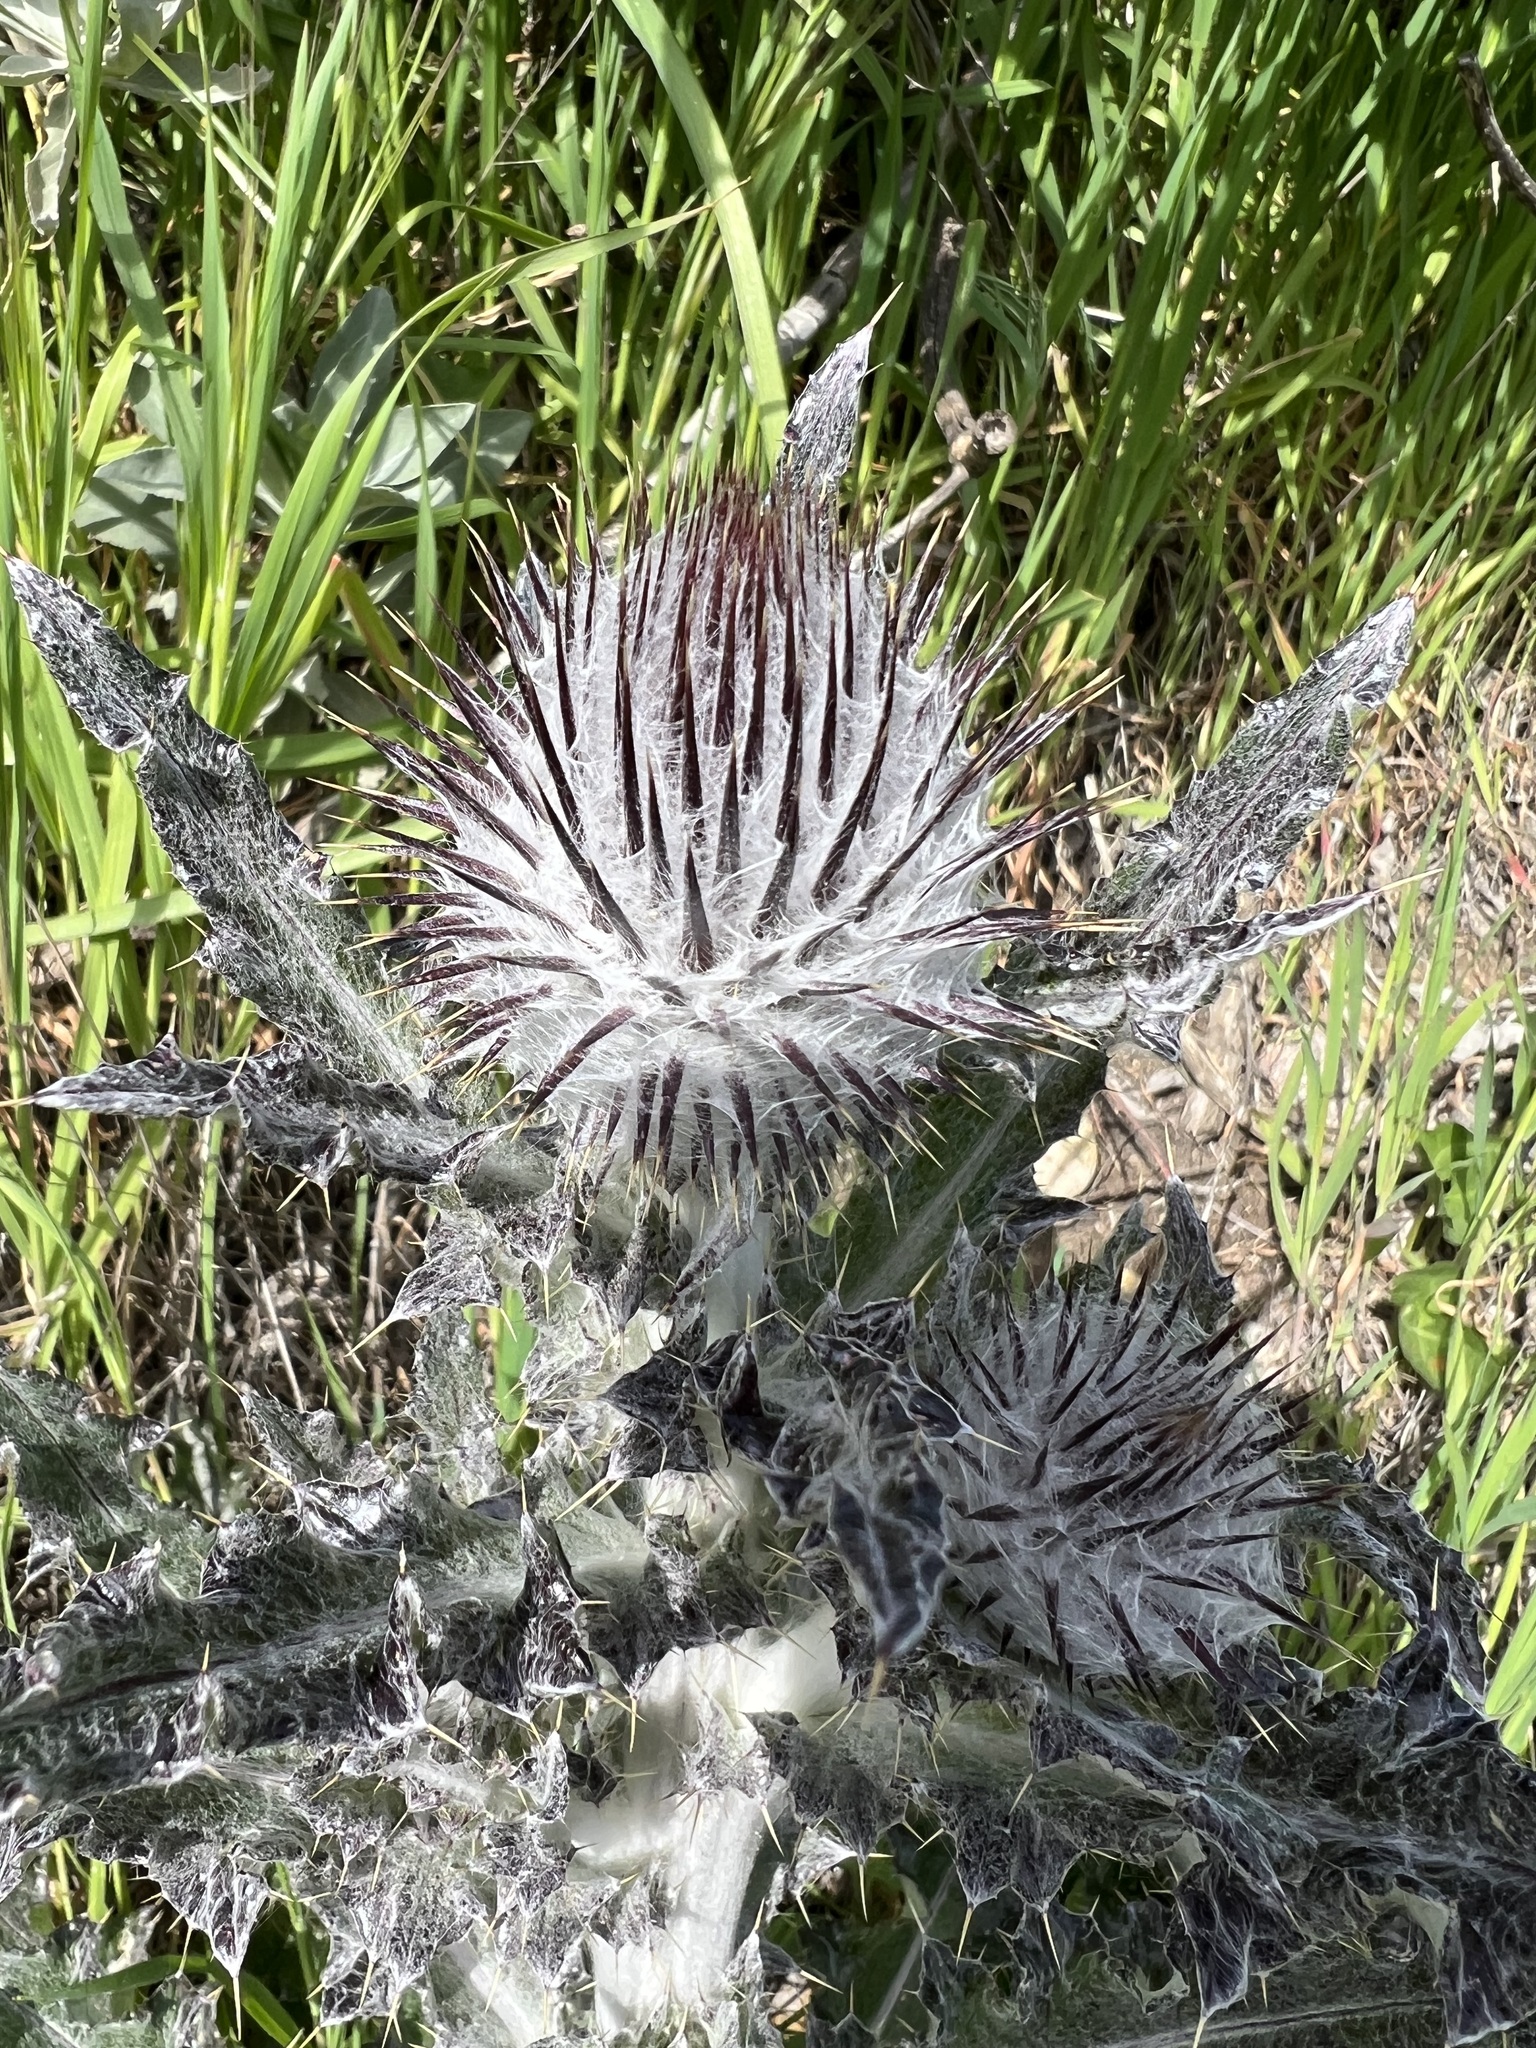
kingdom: Plantae
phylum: Tracheophyta
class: Magnoliopsida
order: Asterales
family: Asteraceae
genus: Cirsium
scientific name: Cirsium occidentale
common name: Western thistle
